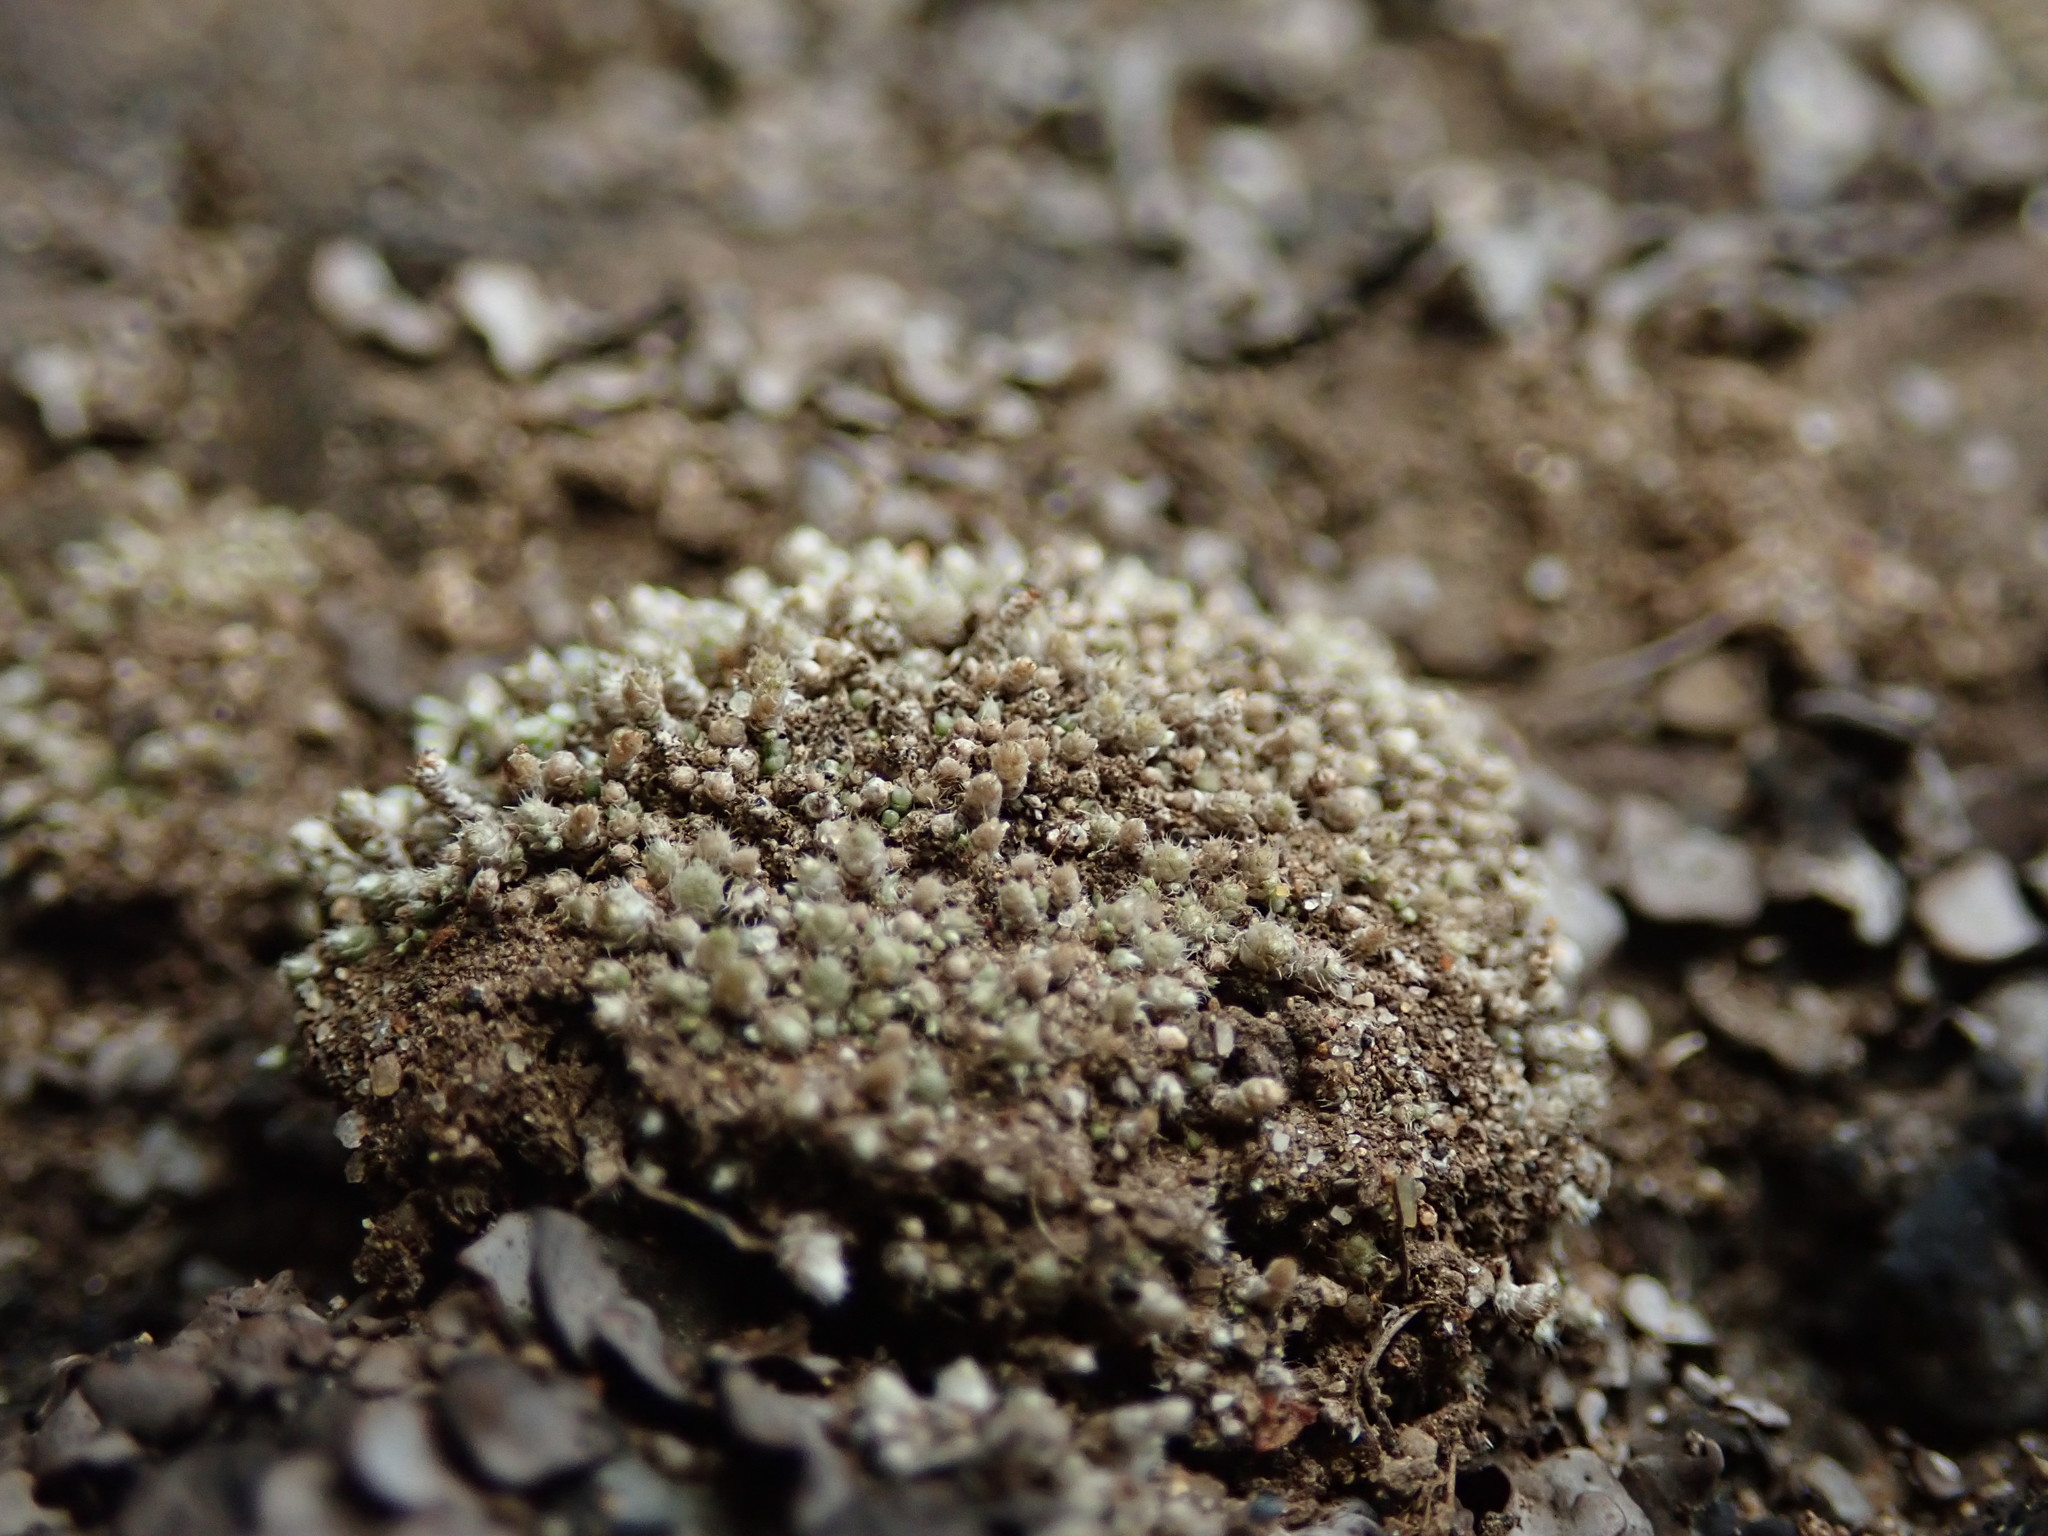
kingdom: Plantae
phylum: Bryophyta
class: Bryopsida
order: Bryales
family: Bryaceae
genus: Bryum
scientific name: Bryum argenteum
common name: Silver-moss
